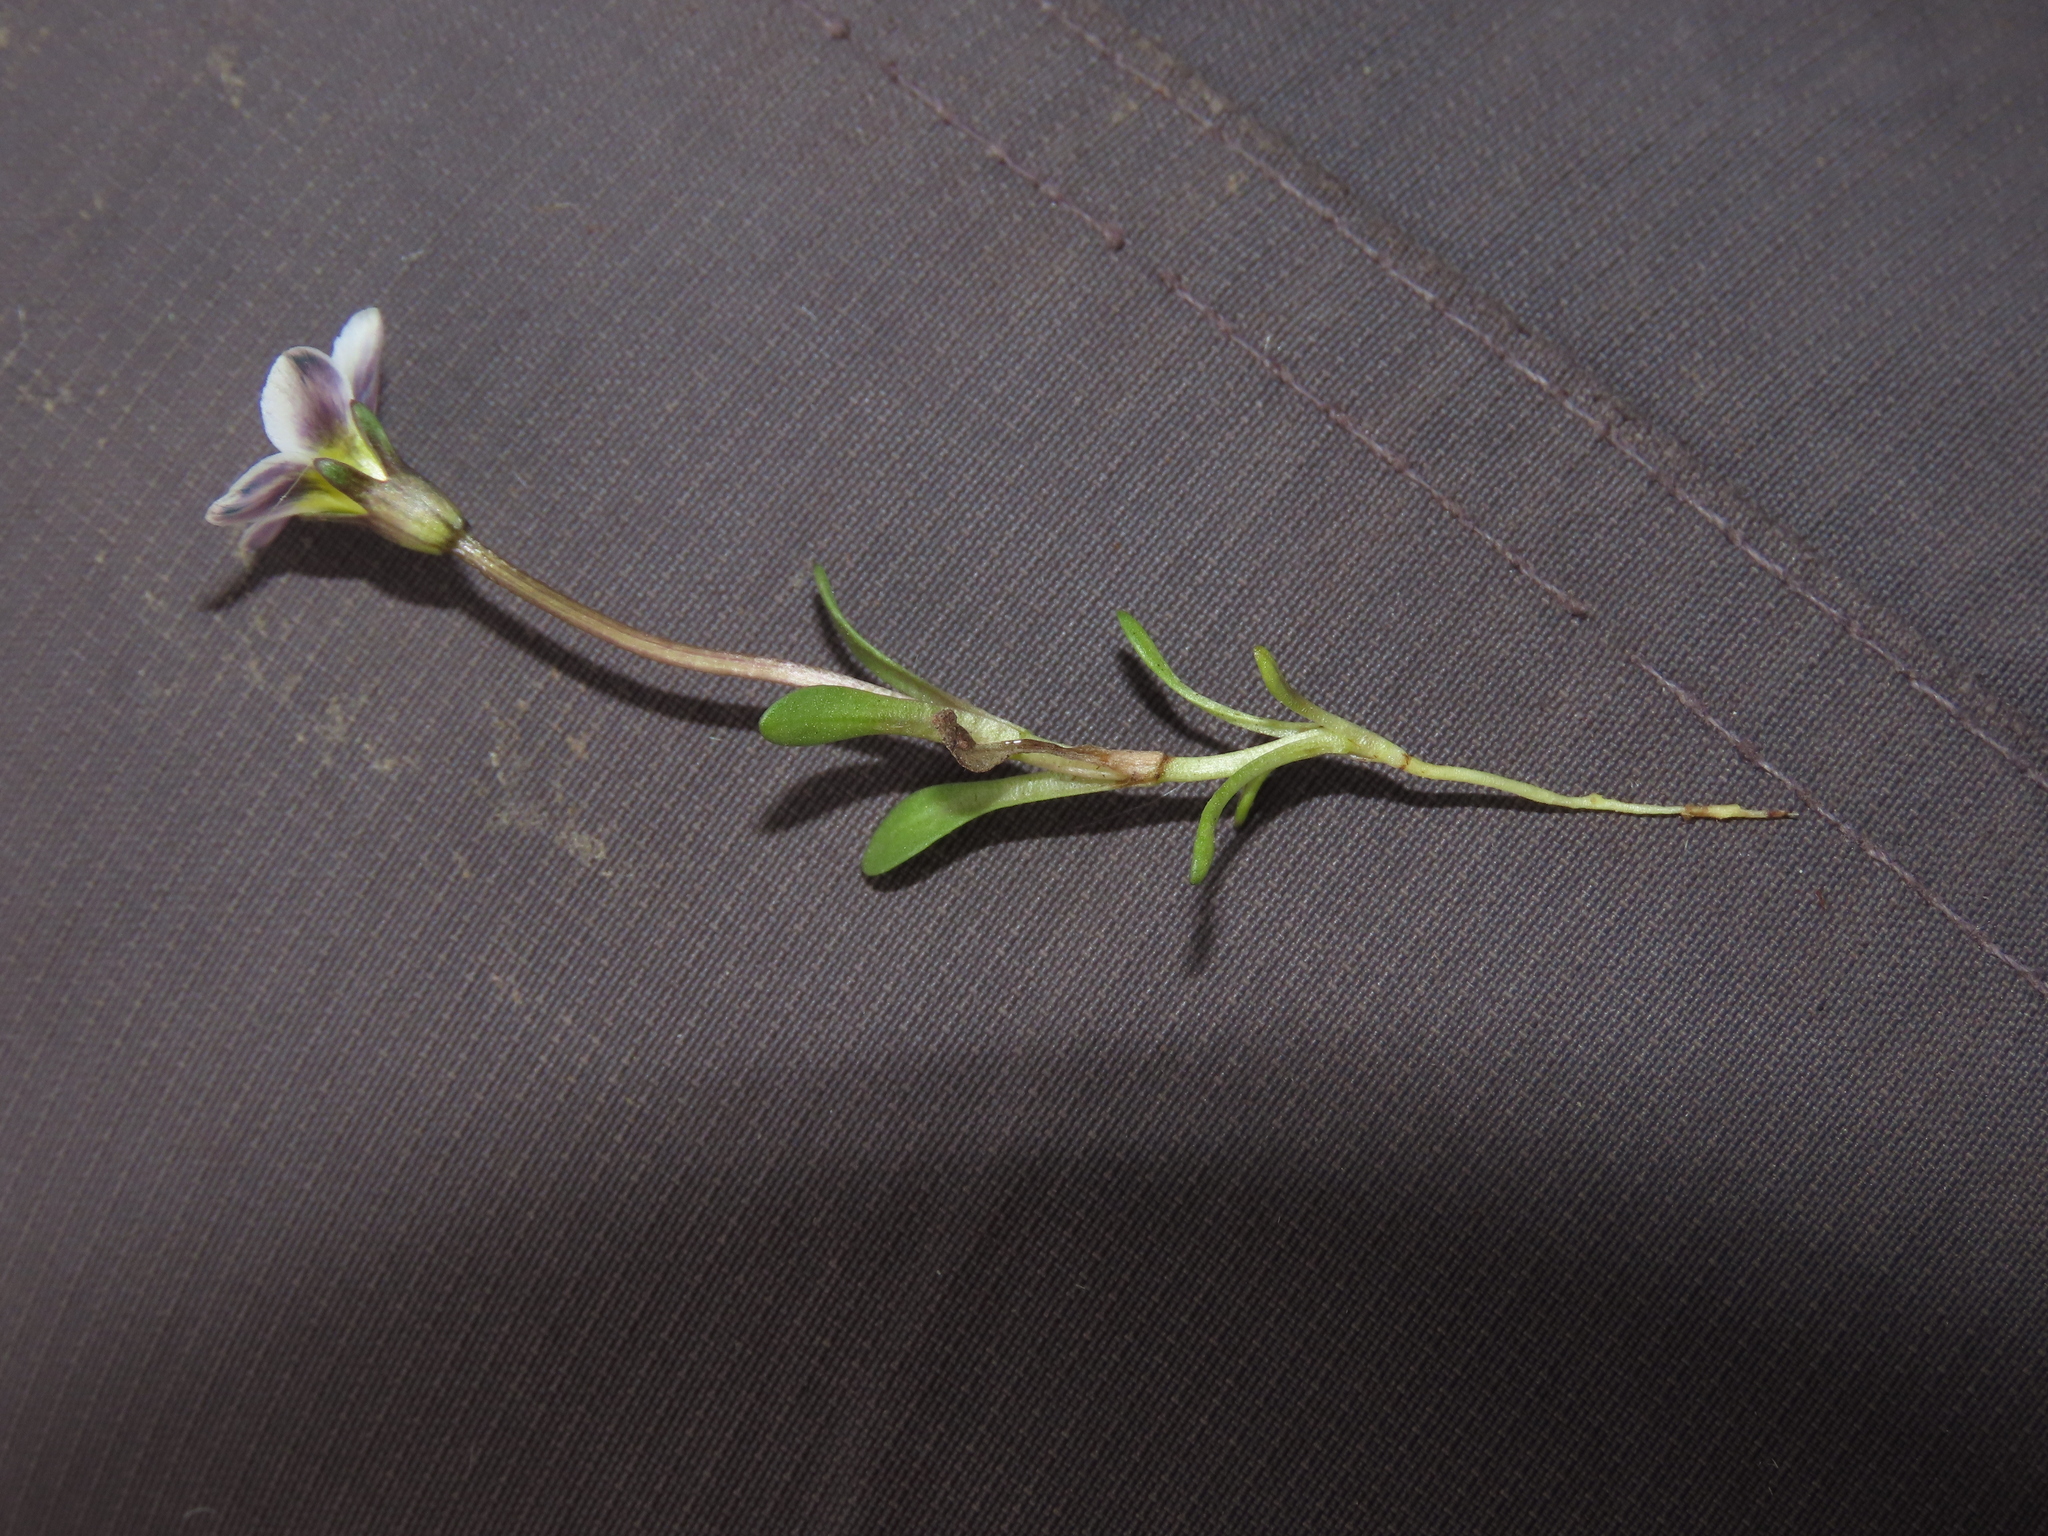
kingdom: Plantae
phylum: Tracheophyta
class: Magnoliopsida
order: Gentianales
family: Gentianaceae
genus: Gentianella
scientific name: Gentianella tarapacana
